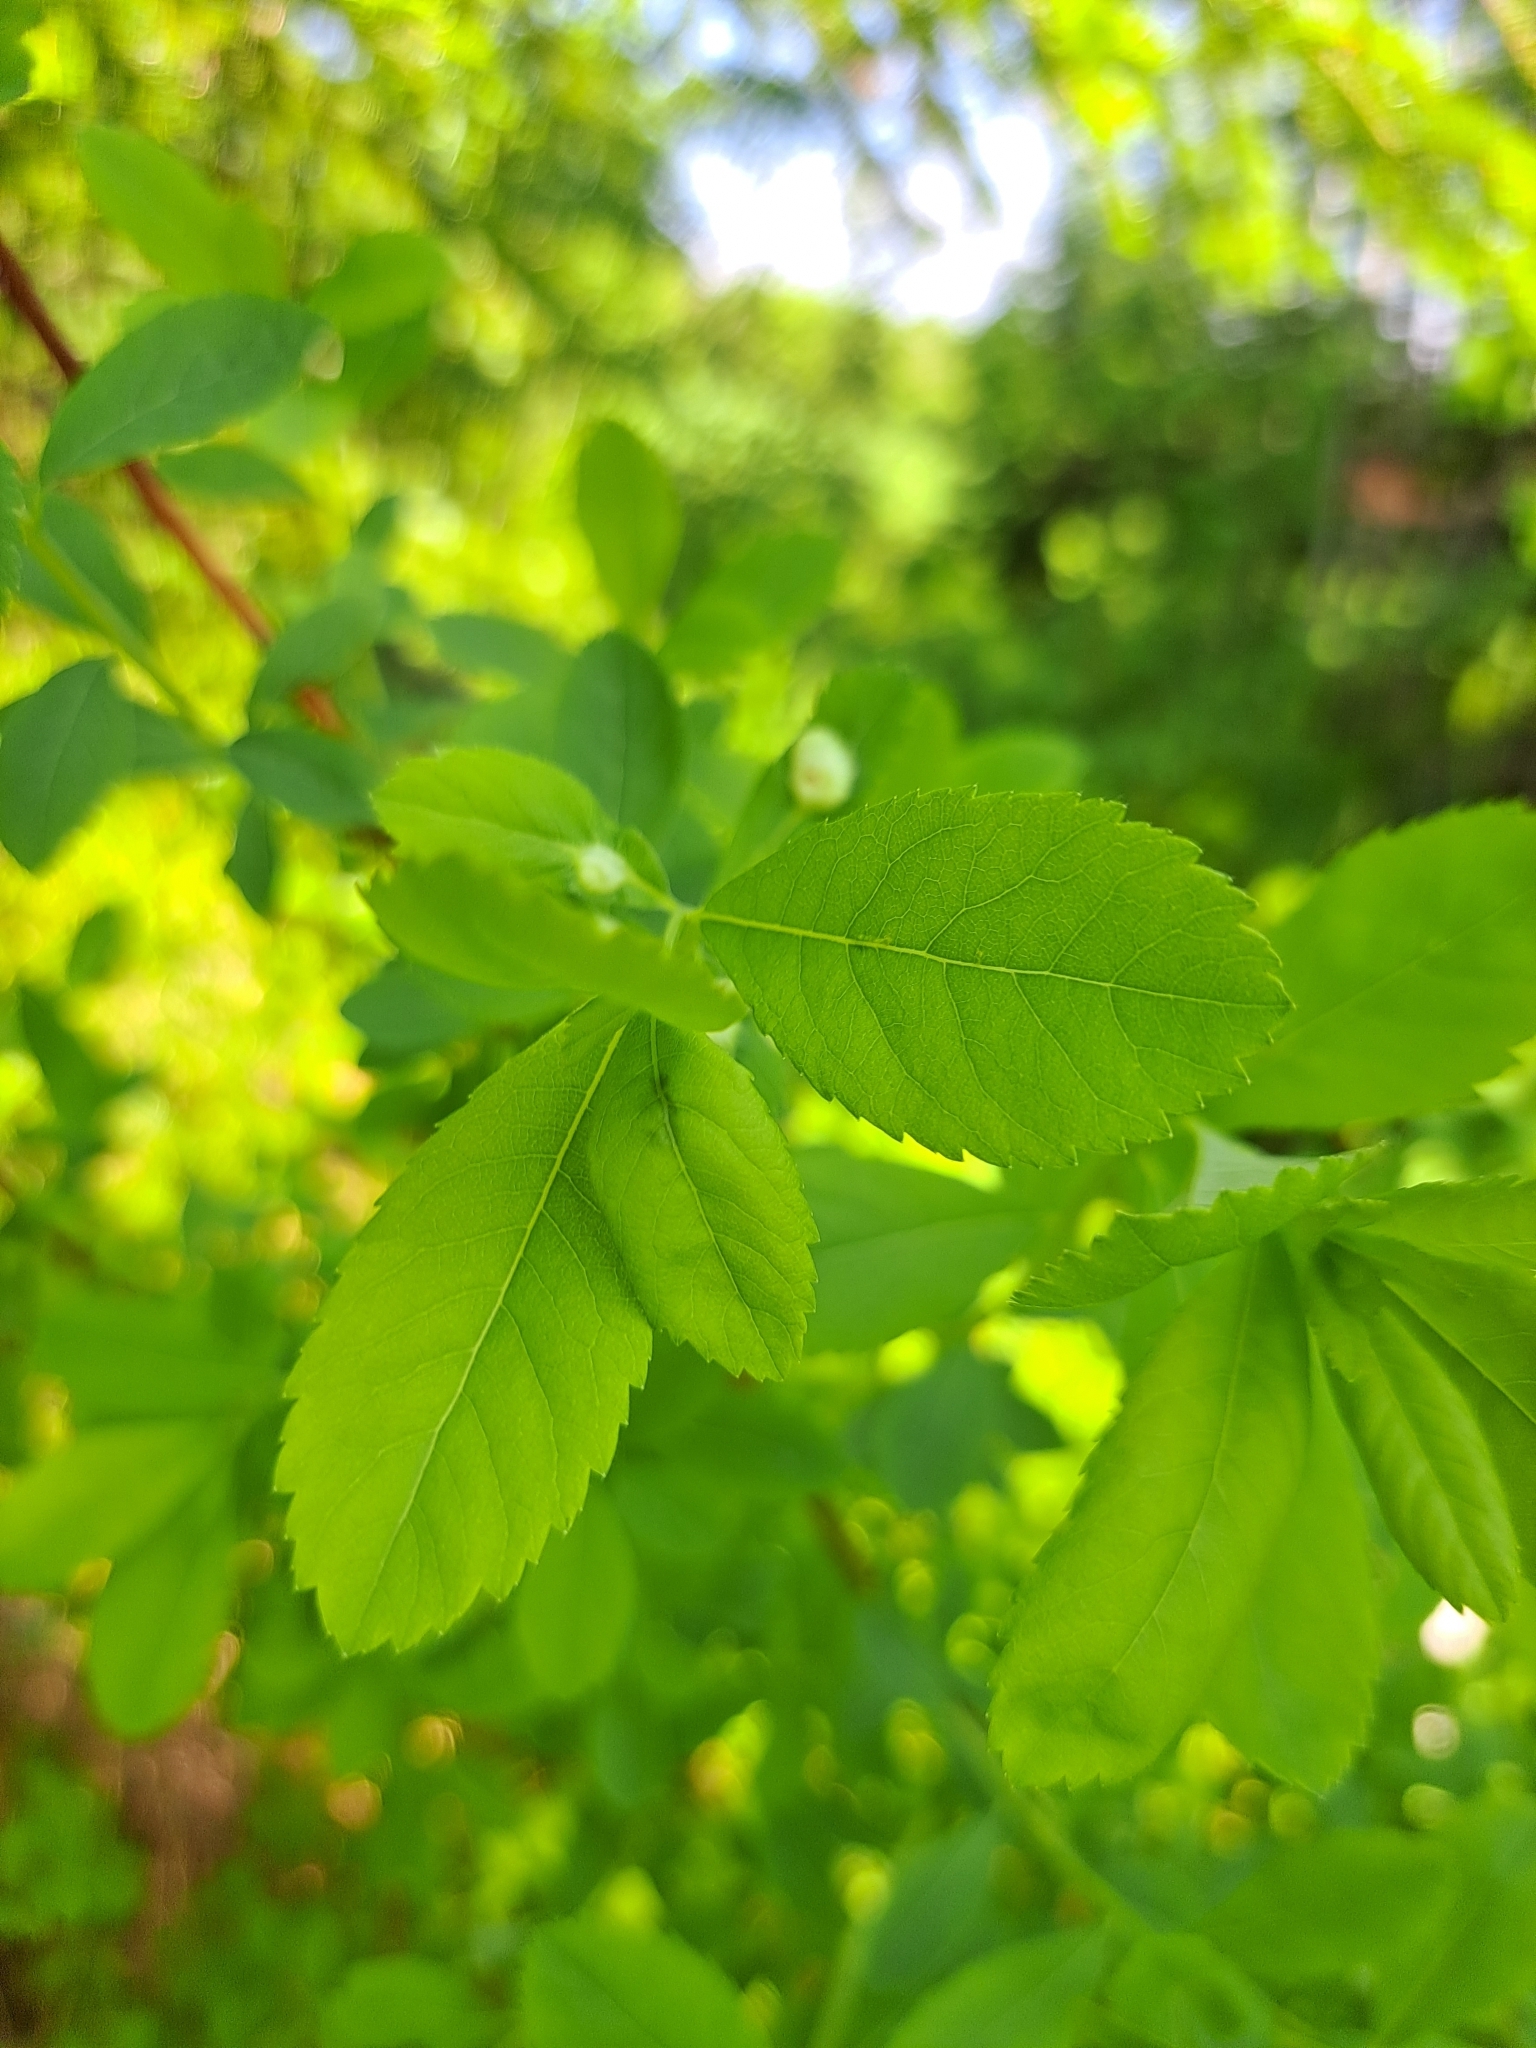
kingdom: Animalia
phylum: Arthropoda
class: Insecta
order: Hymenoptera
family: Cynipidae
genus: Diplolepis
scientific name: Diplolepis rosaefolii
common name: Blister-gall wasp
